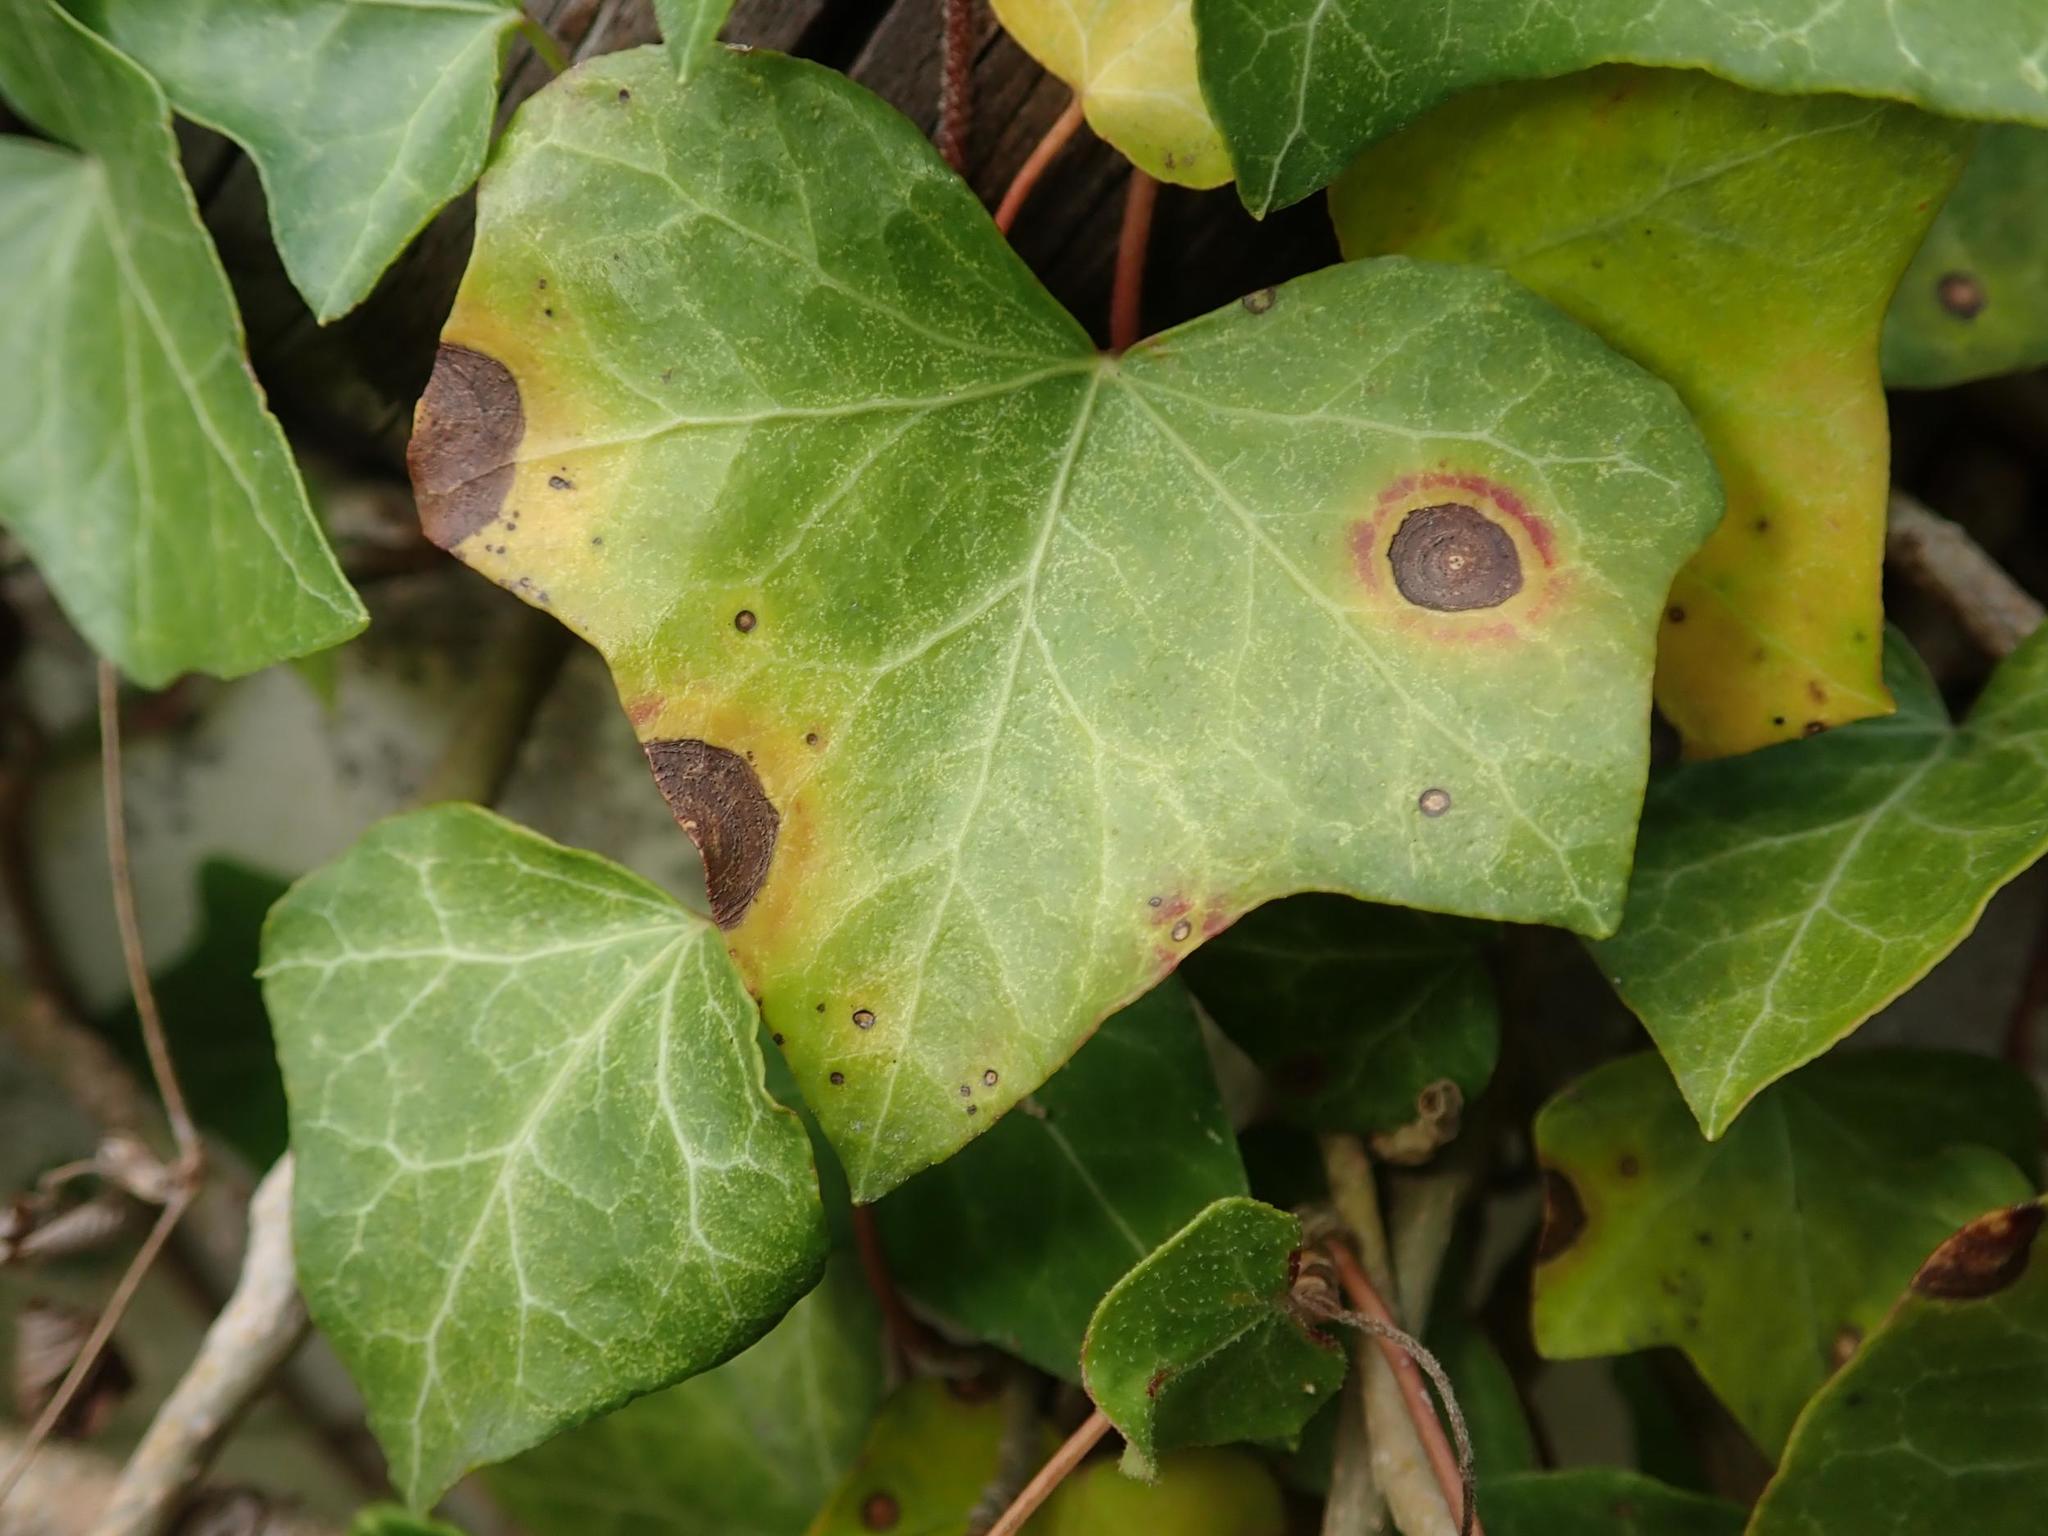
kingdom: Plantae
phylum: Tracheophyta
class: Magnoliopsida
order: Apiales
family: Araliaceae
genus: Hedera
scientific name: Hedera helix
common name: Ivy
